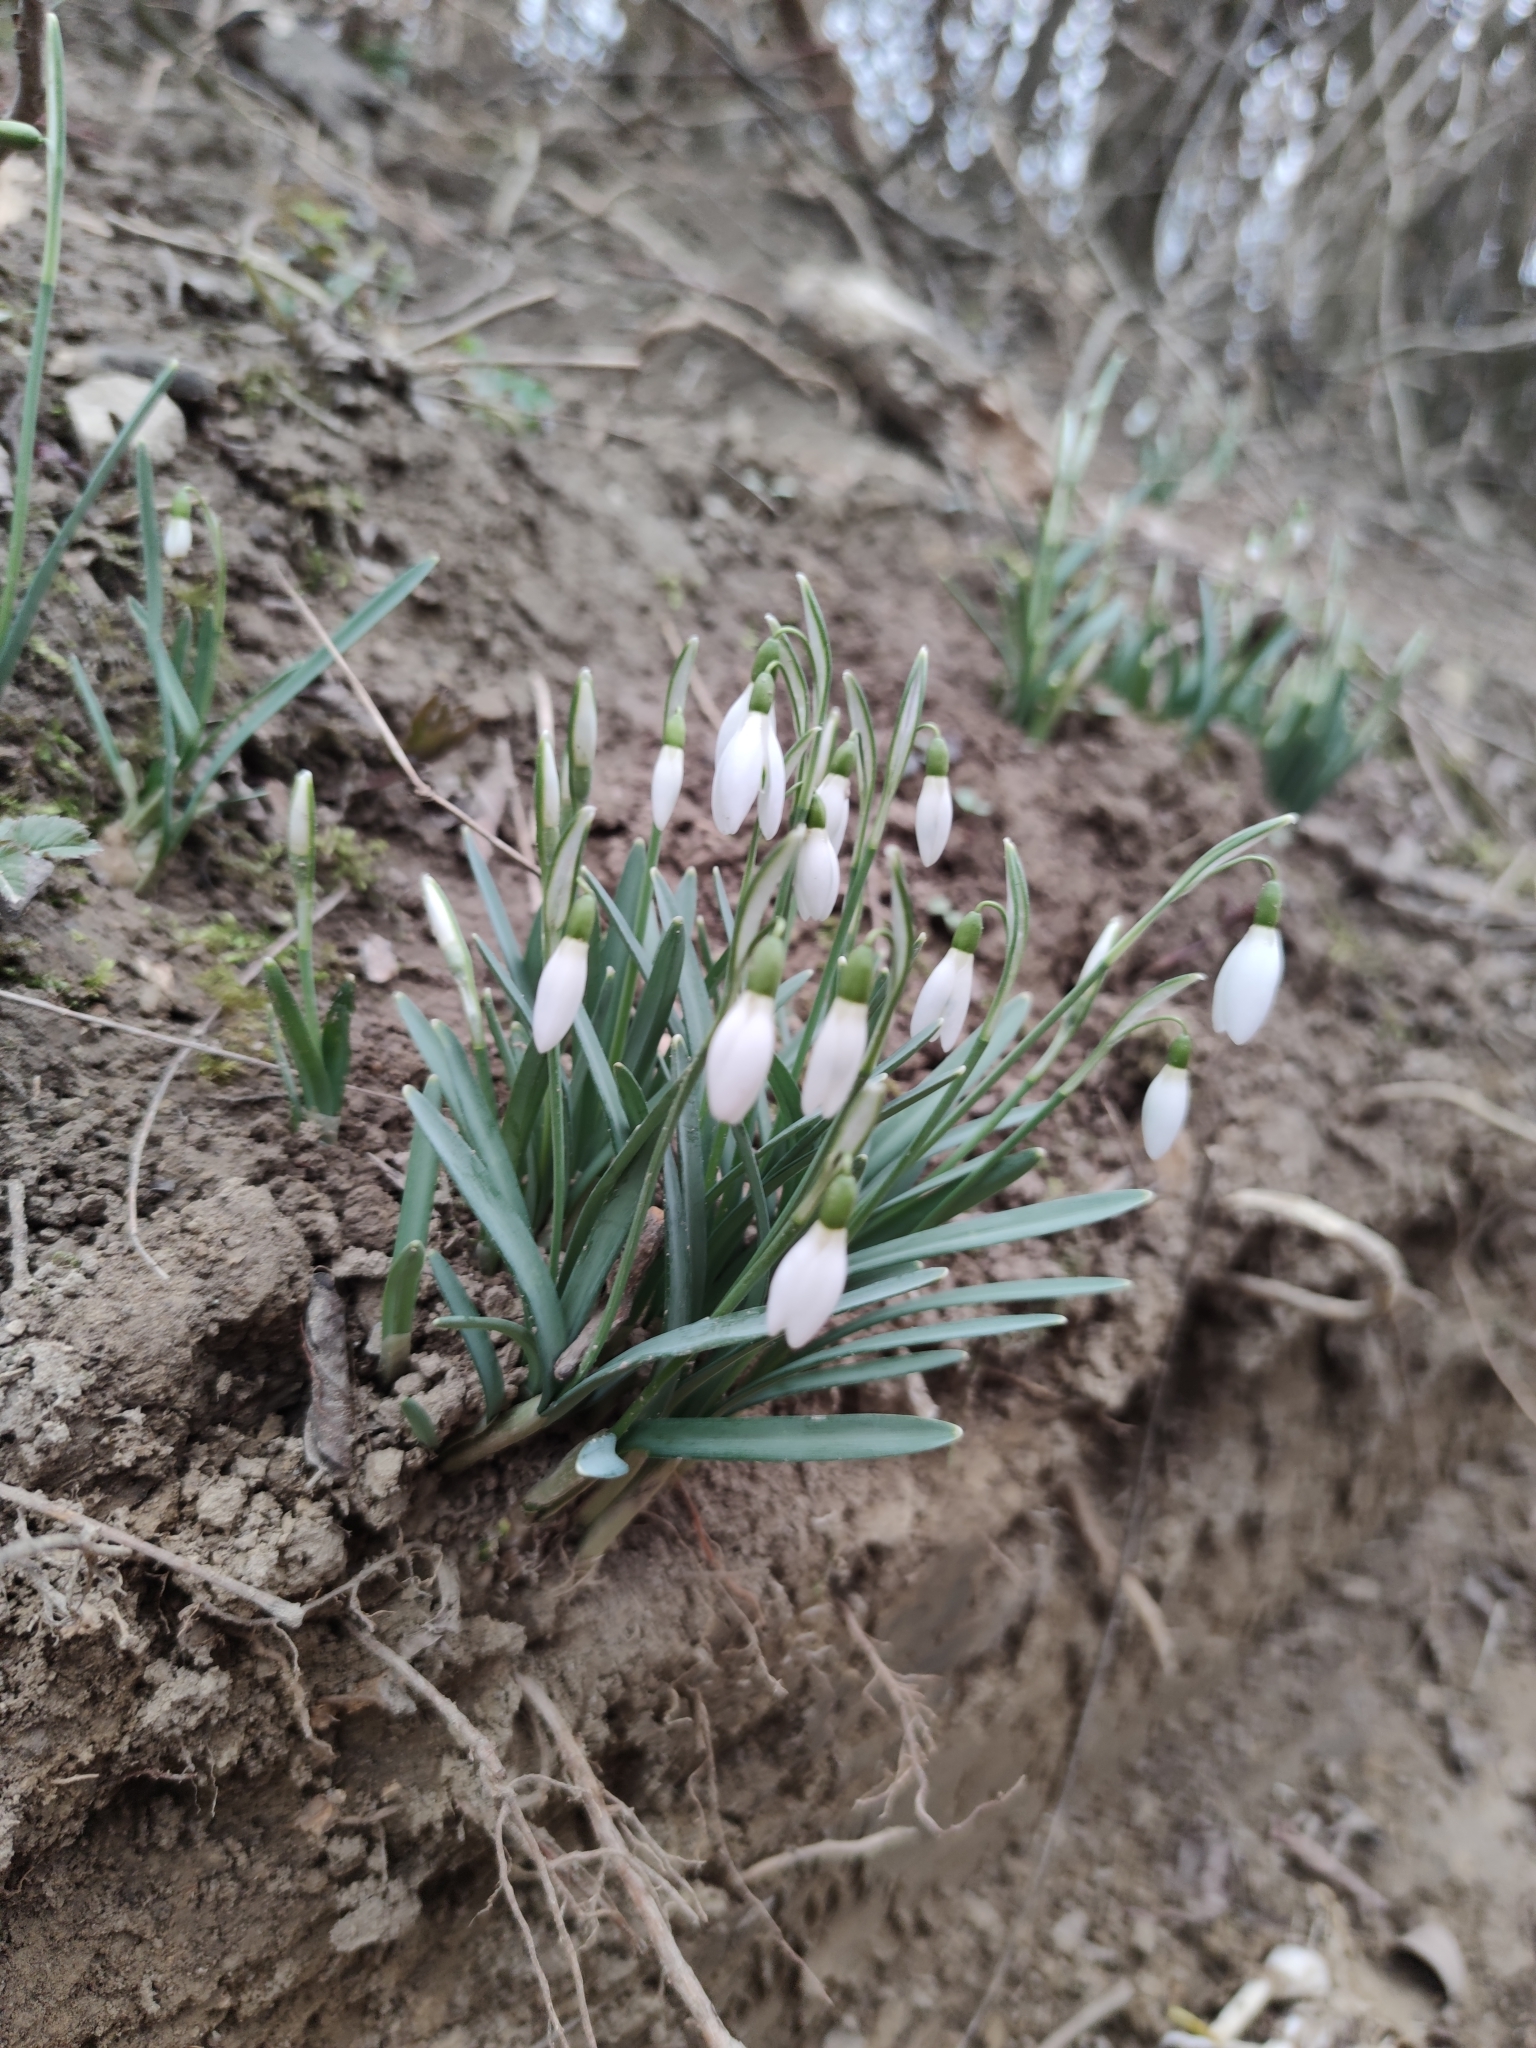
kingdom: Plantae
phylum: Tracheophyta
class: Liliopsida
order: Asparagales
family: Amaryllidaceae
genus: Galanthus
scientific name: Galanthus nivalis
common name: Snowdrop
